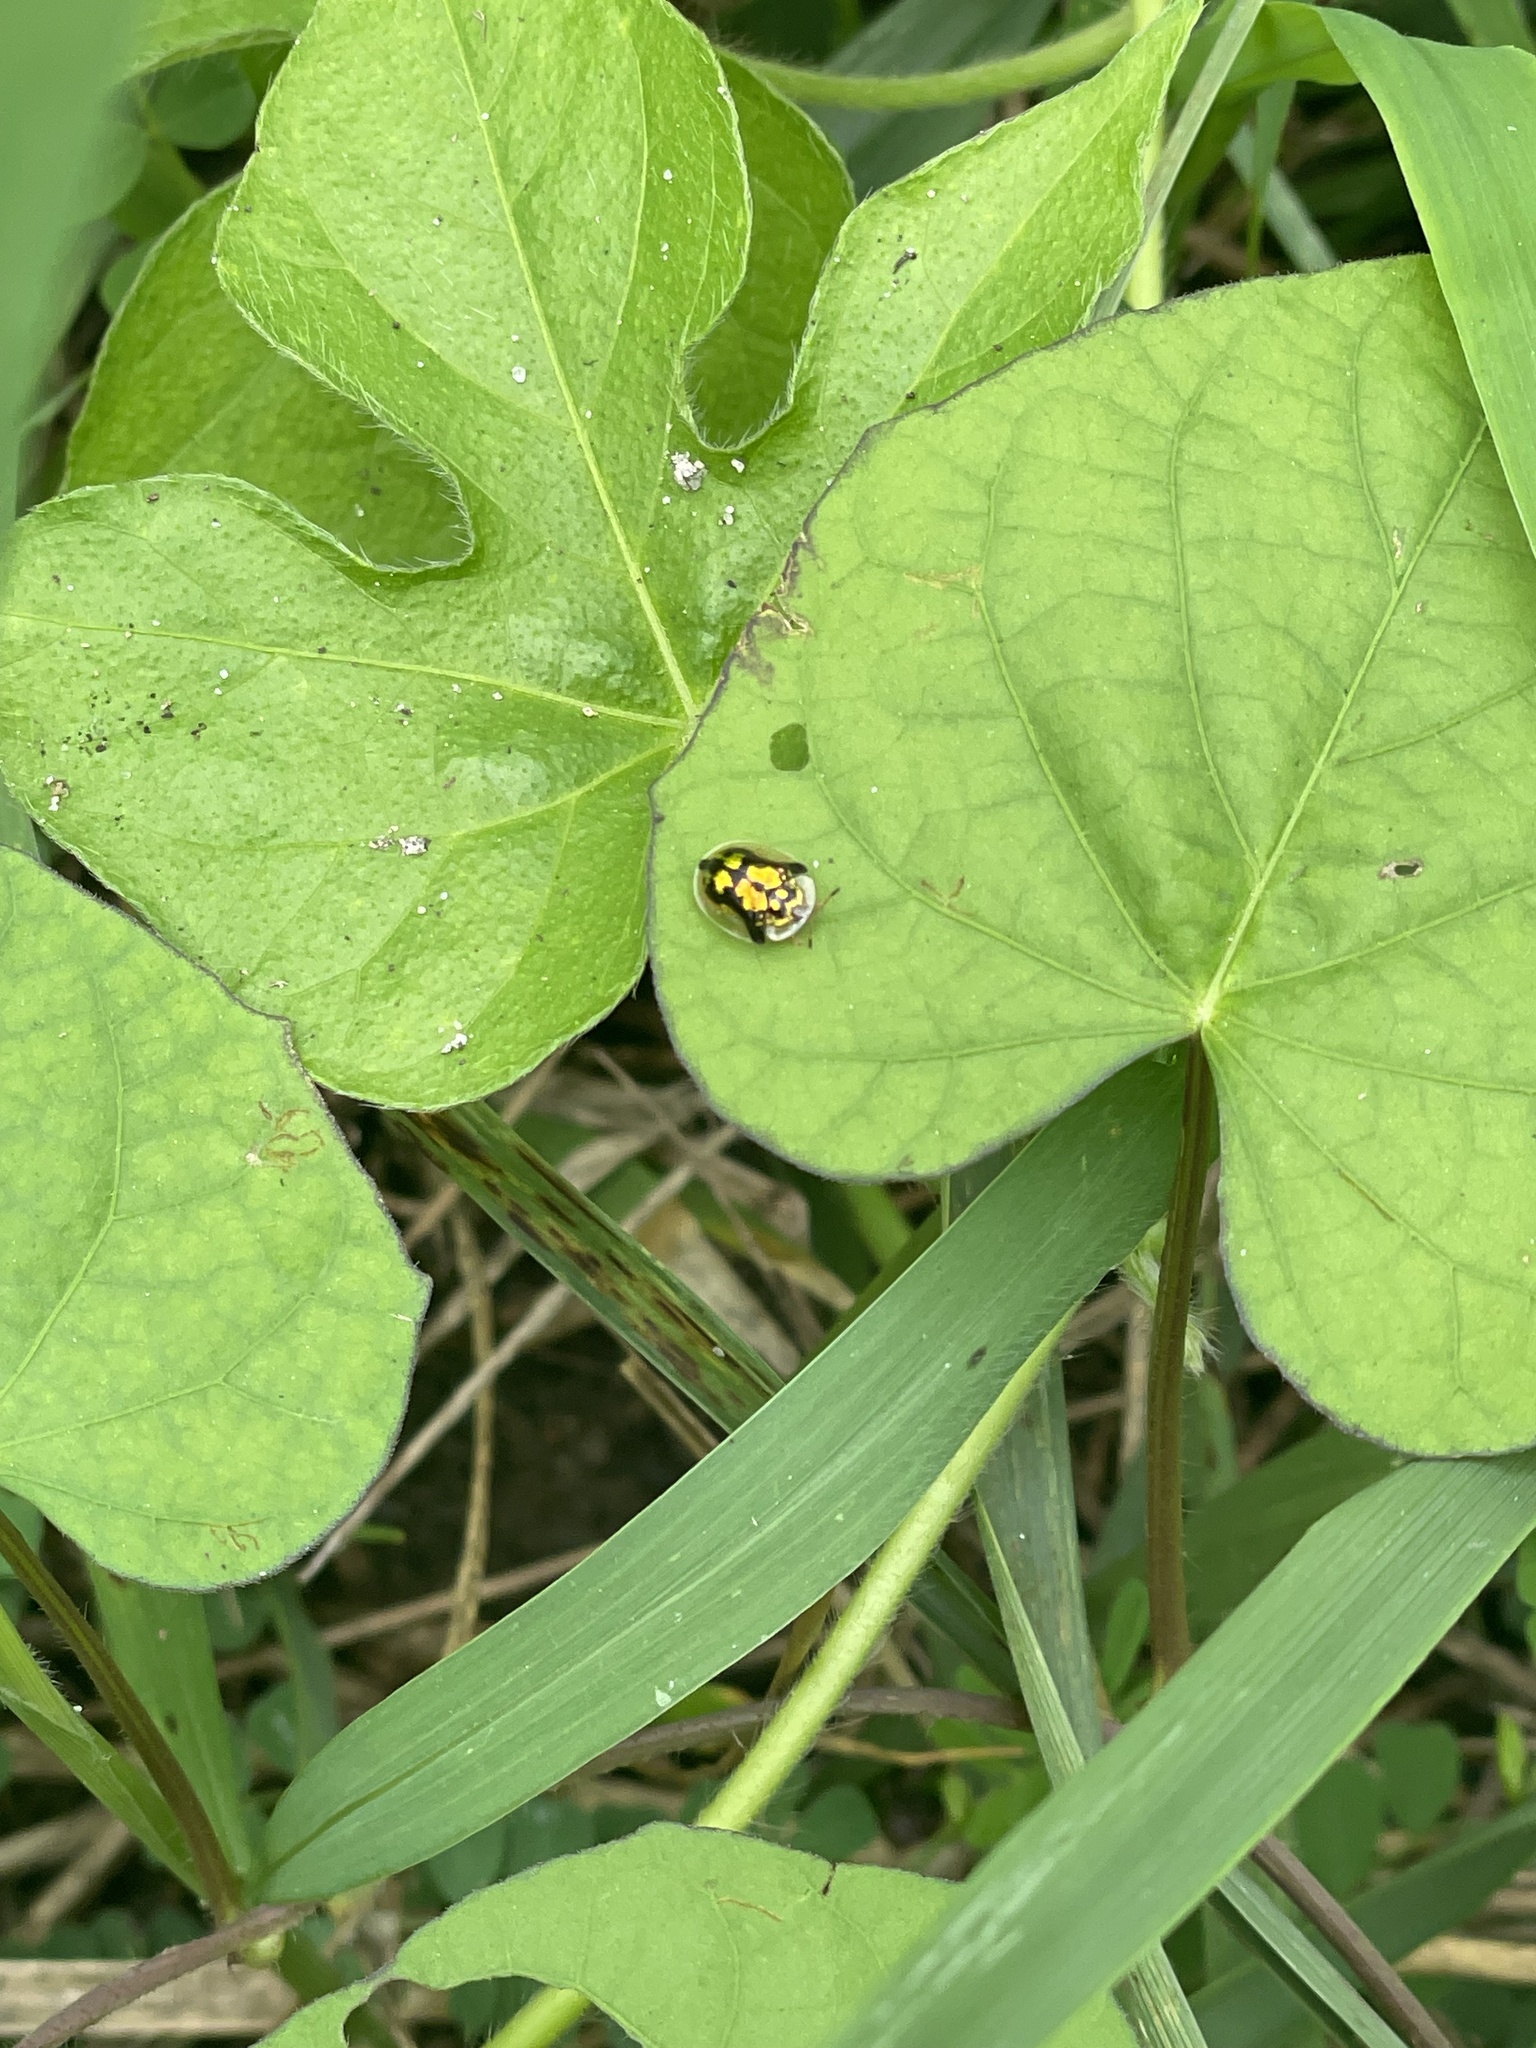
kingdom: Animalia
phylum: Arthropoda
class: Insecta
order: Coleoptera
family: Chrysomelidae
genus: Deloyala
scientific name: Deloyala guttata
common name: Mottled tortoise beetle
